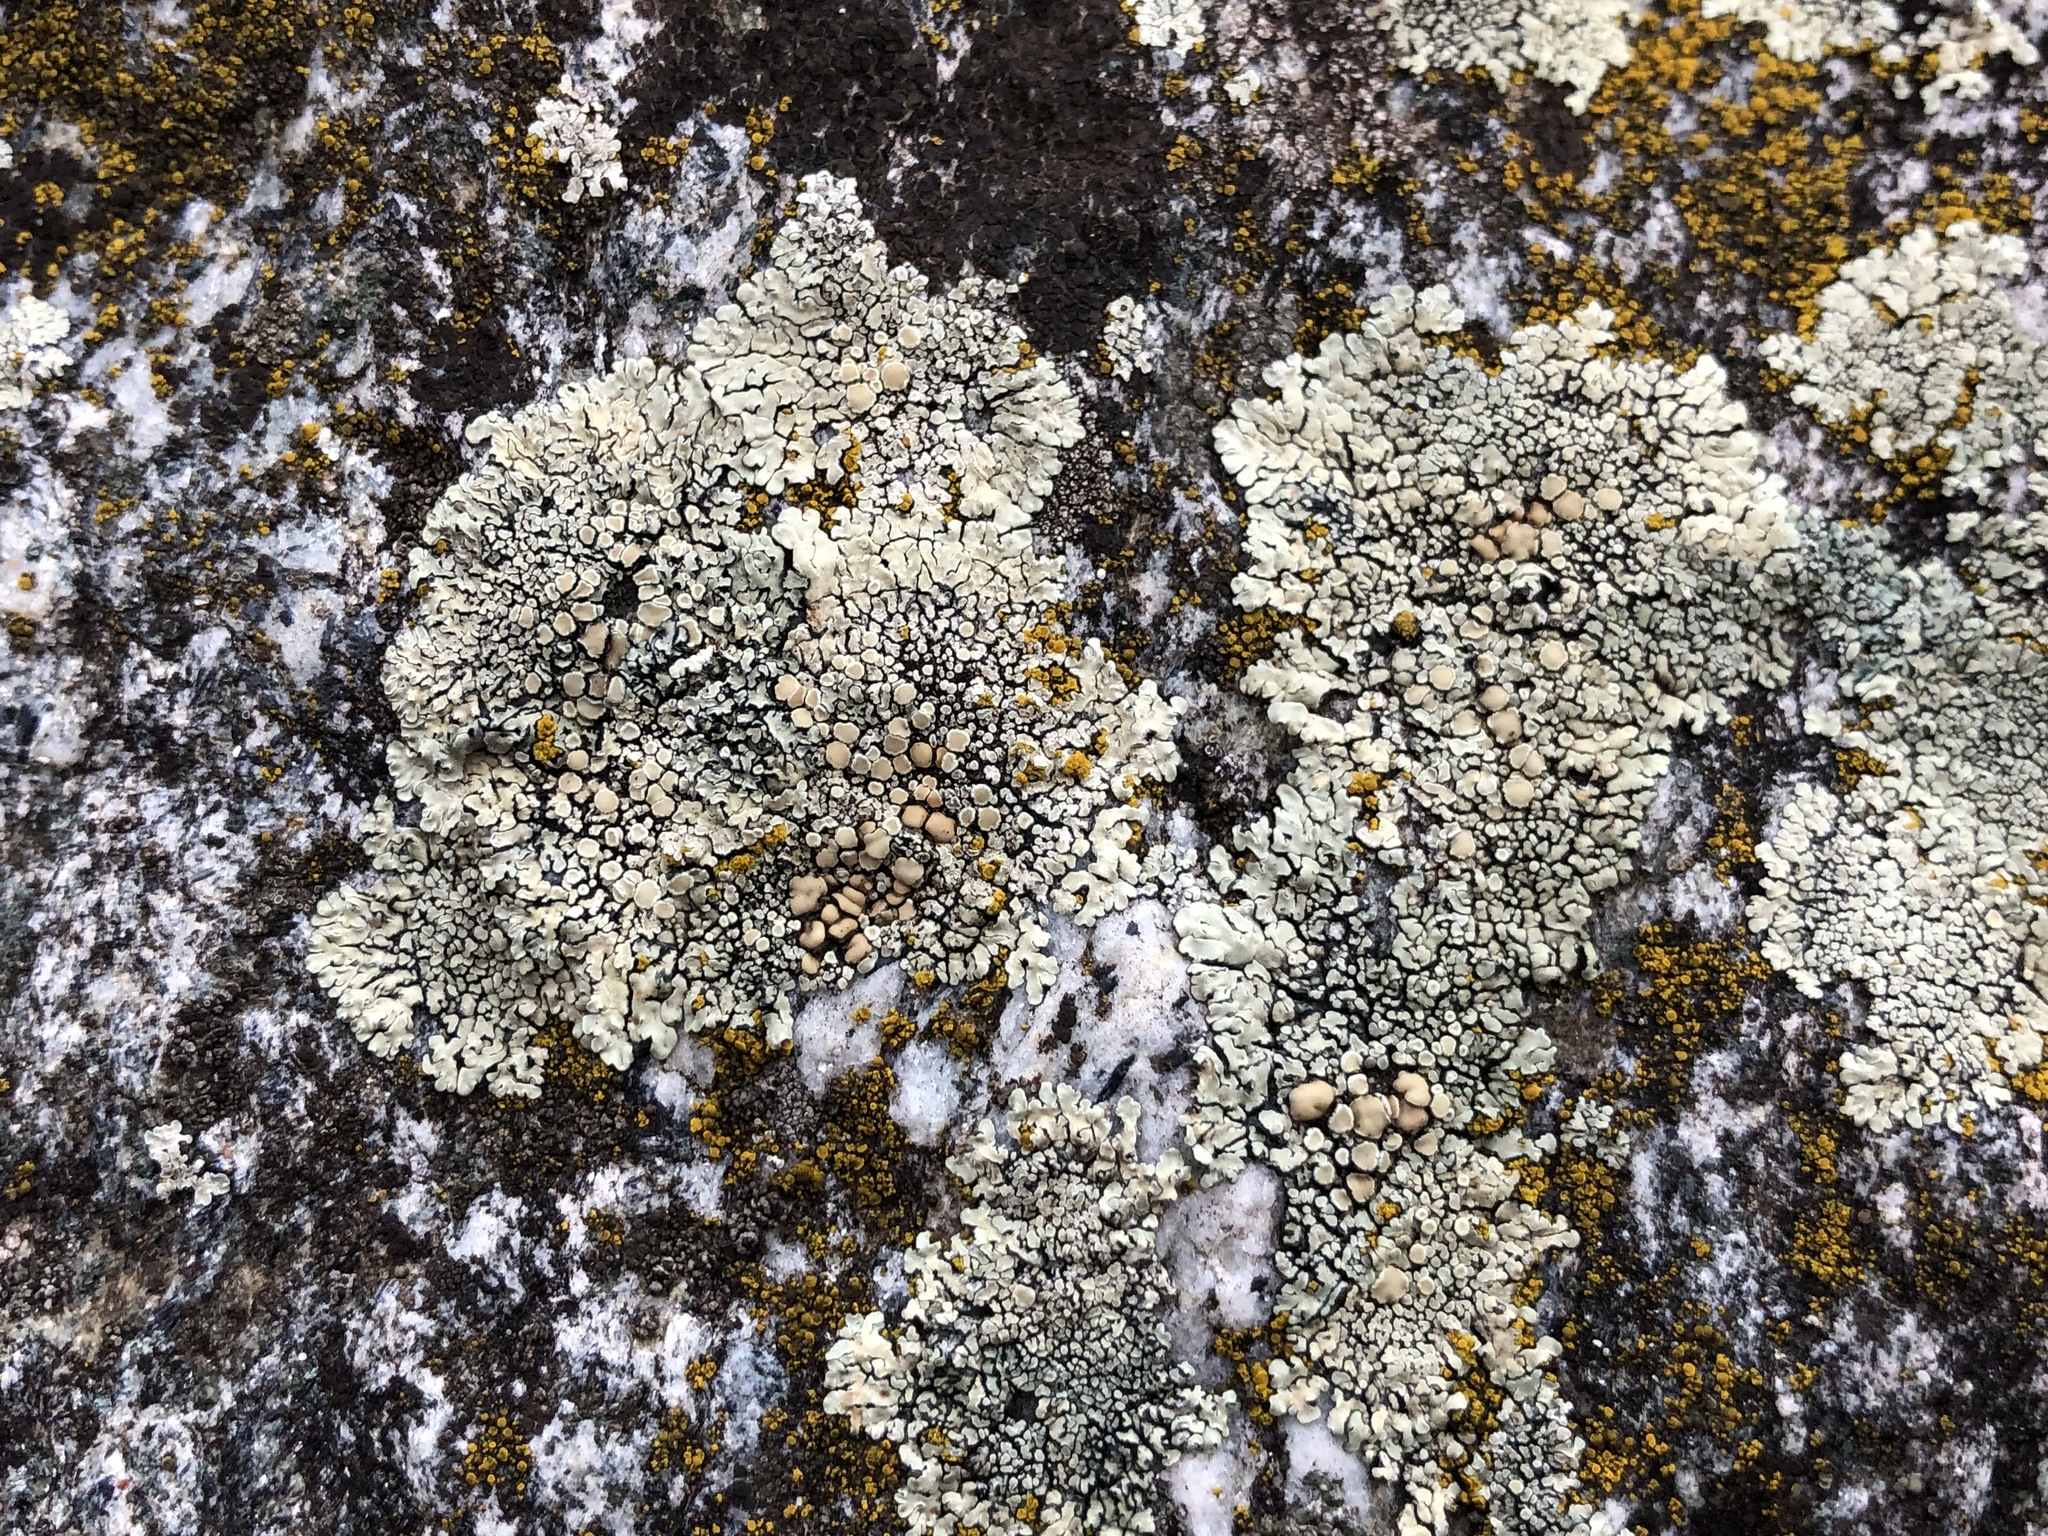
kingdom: Fungi
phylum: Ascomycota
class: Lecanoromycetes
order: Lecanorales
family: Lecanoraceae
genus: Protoparmeliopsis
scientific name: Protoparmeliopsis muralis
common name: Stonewall rim lichen
